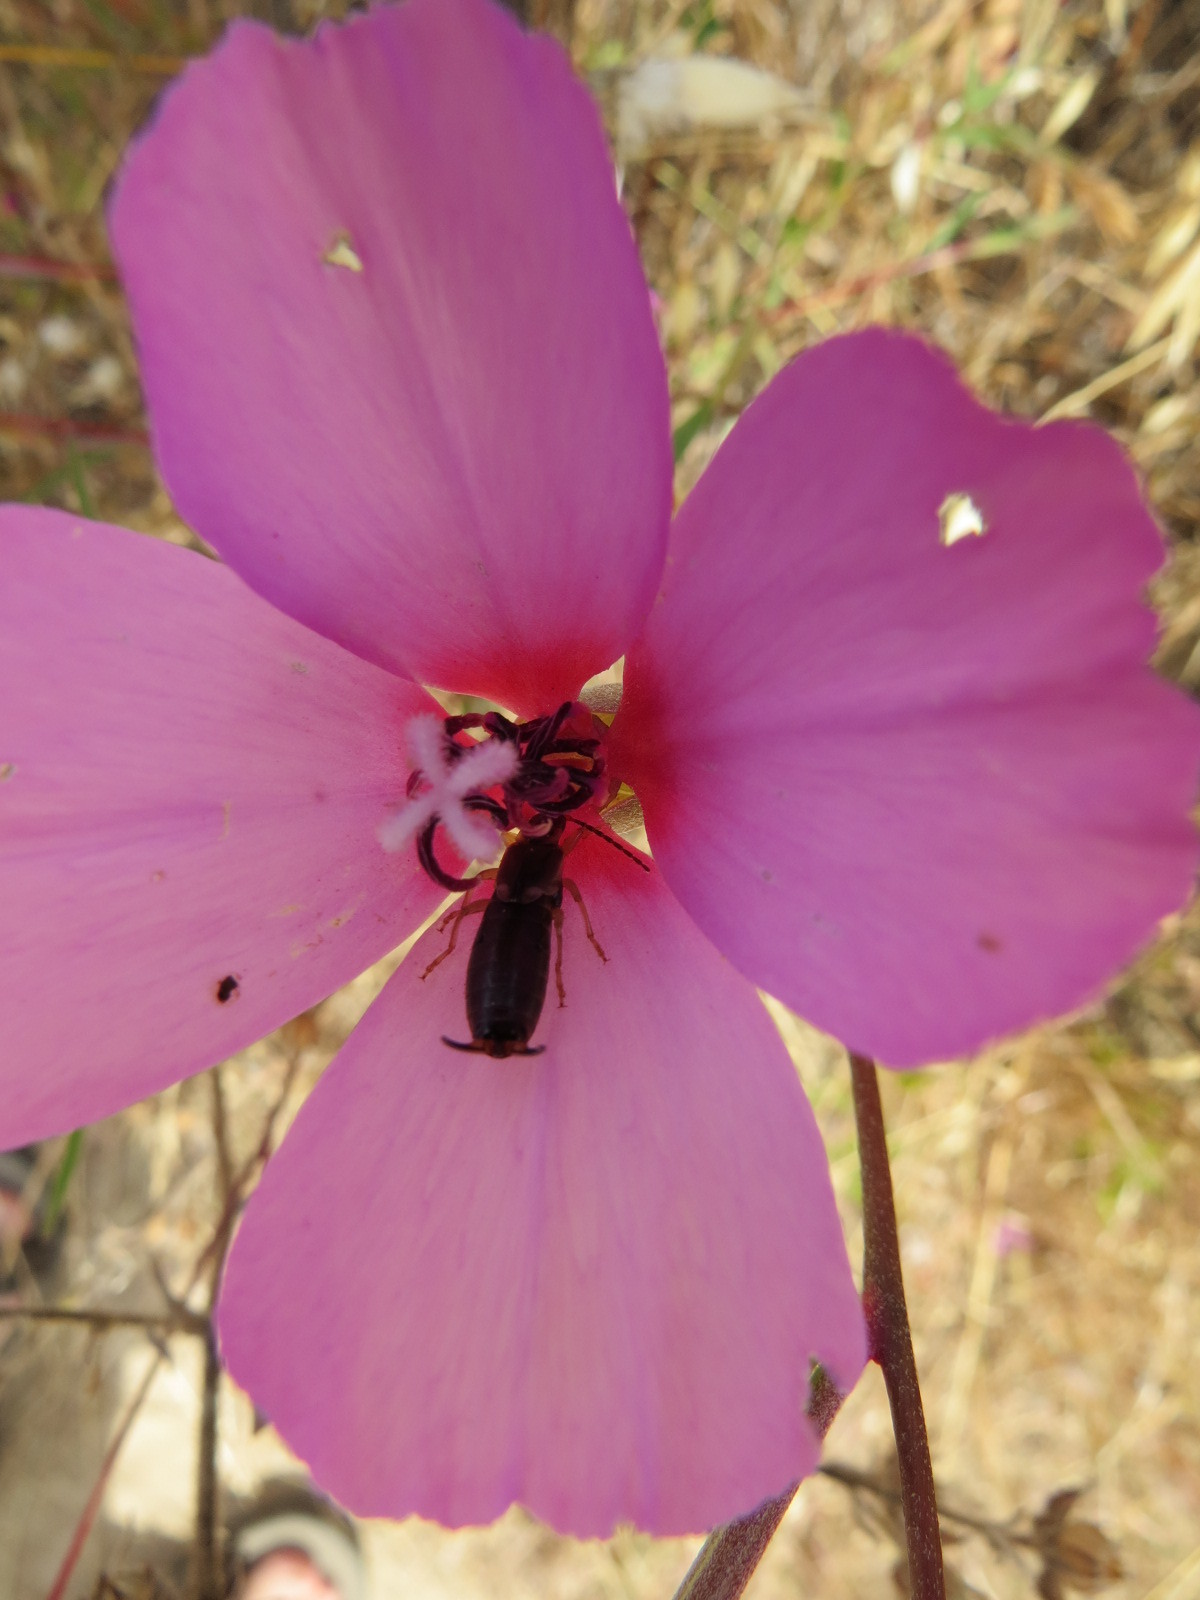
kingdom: Animalia
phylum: Arthropoda
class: Insecta
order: Dermaptera
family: Forficulidae
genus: Forficula
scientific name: Forficula
